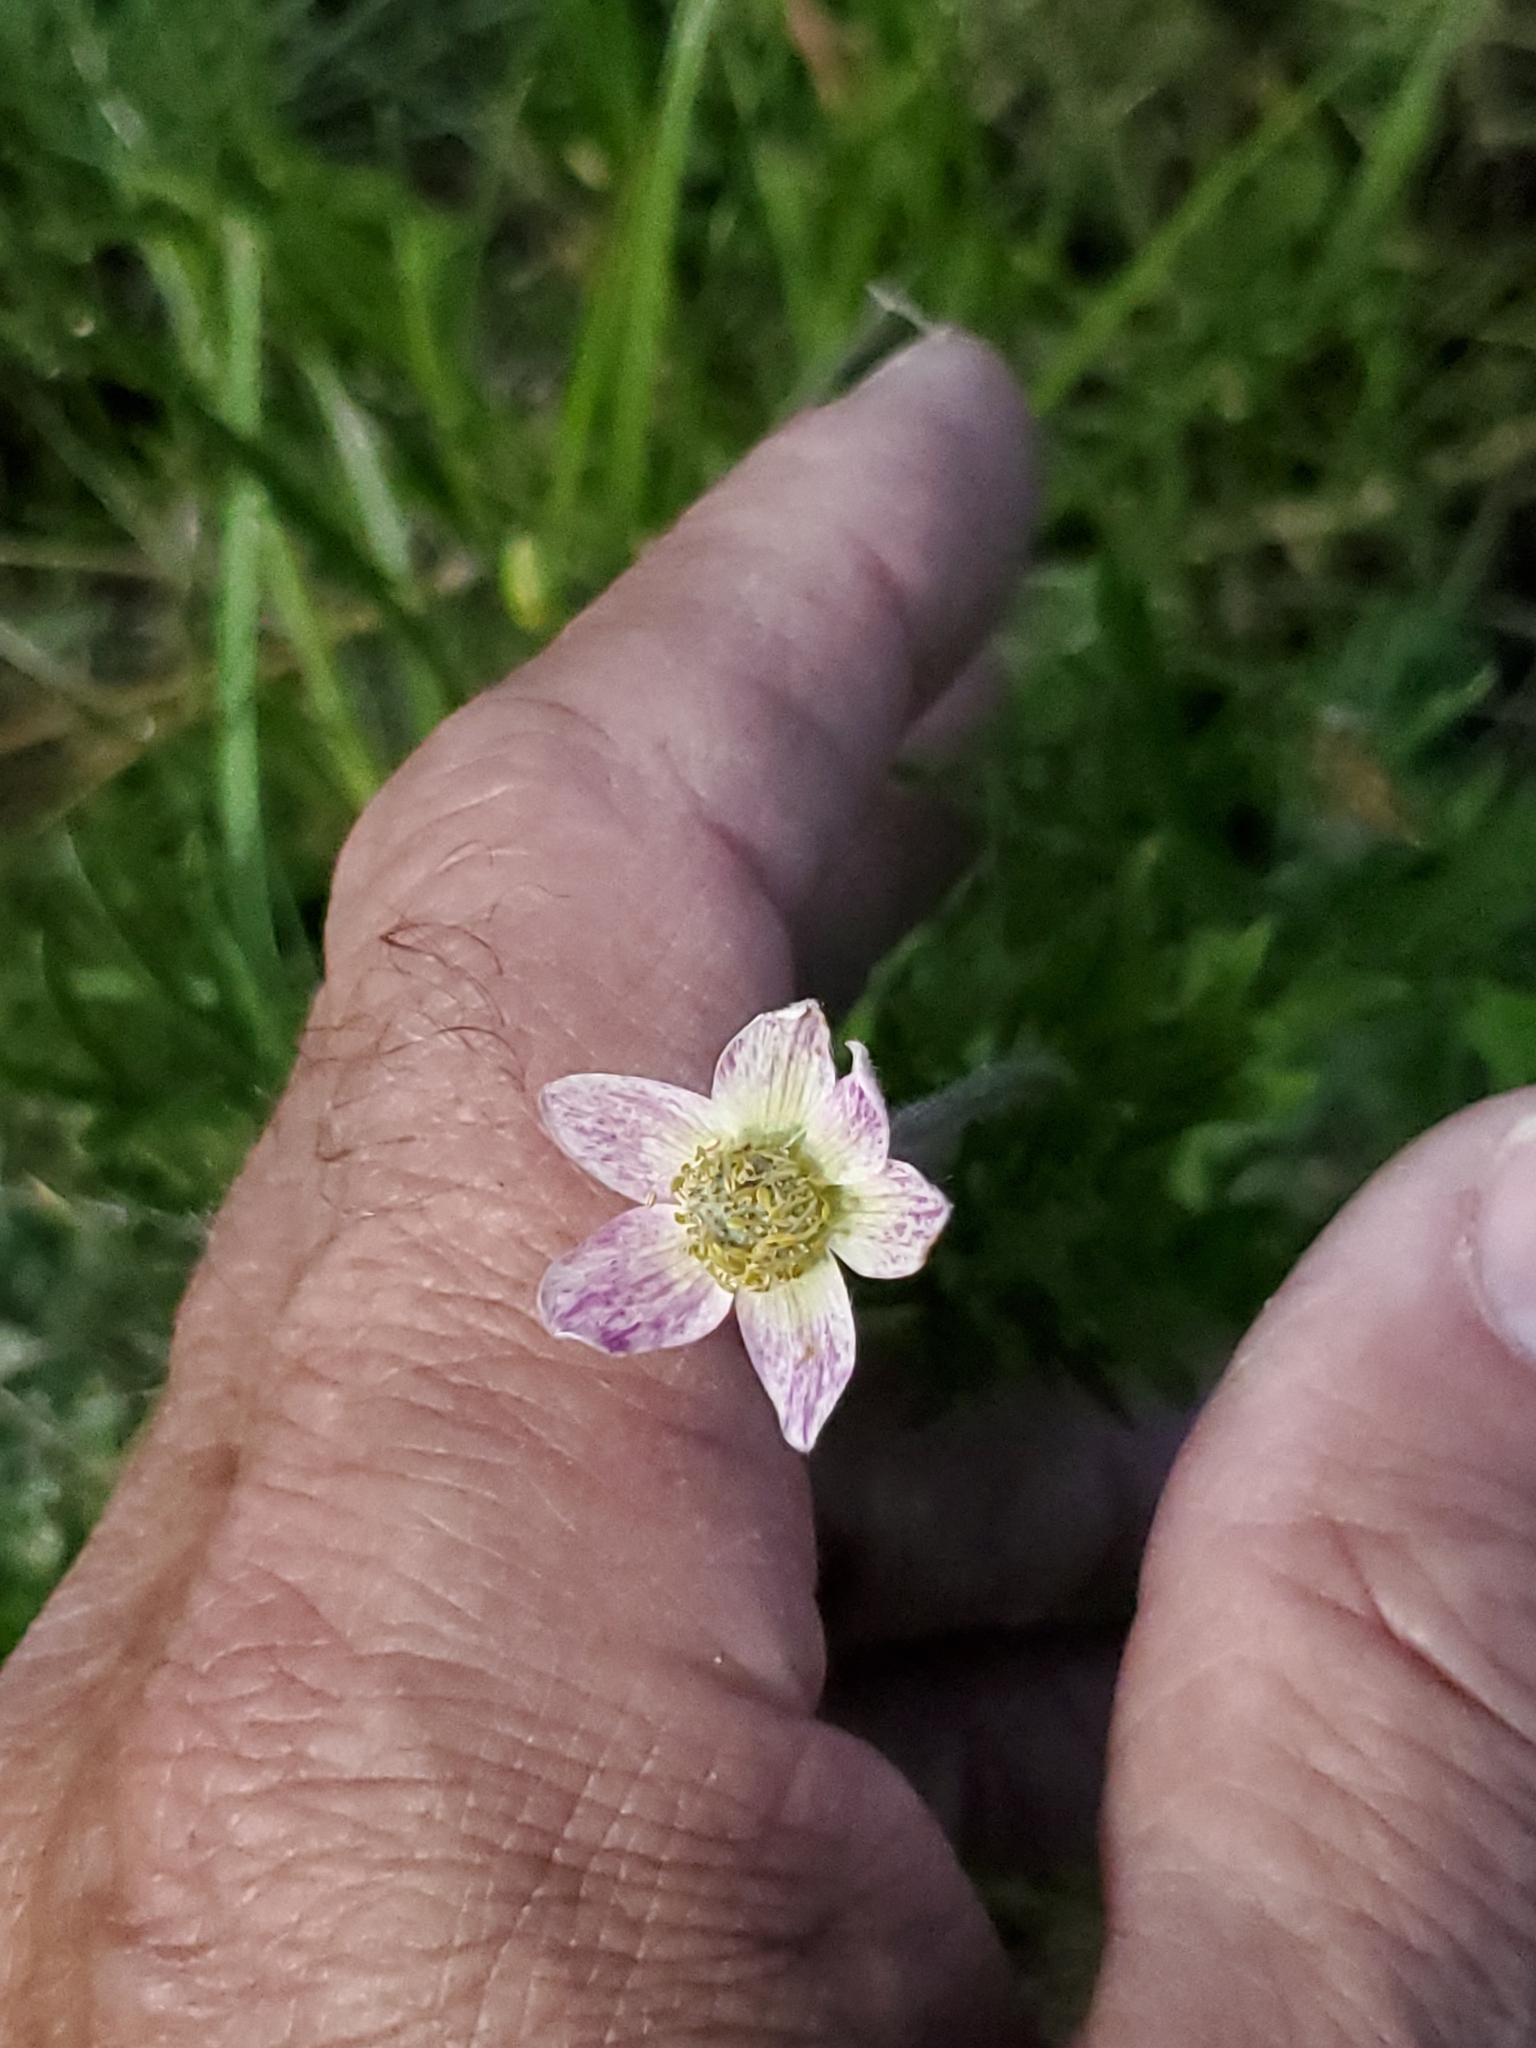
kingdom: Plantae
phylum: Tracheophyta
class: Magnoliopsida
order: Ranunculales
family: Ranunculaceae
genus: Anemone
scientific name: Anemone multifida
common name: Bird's-foot anemone
